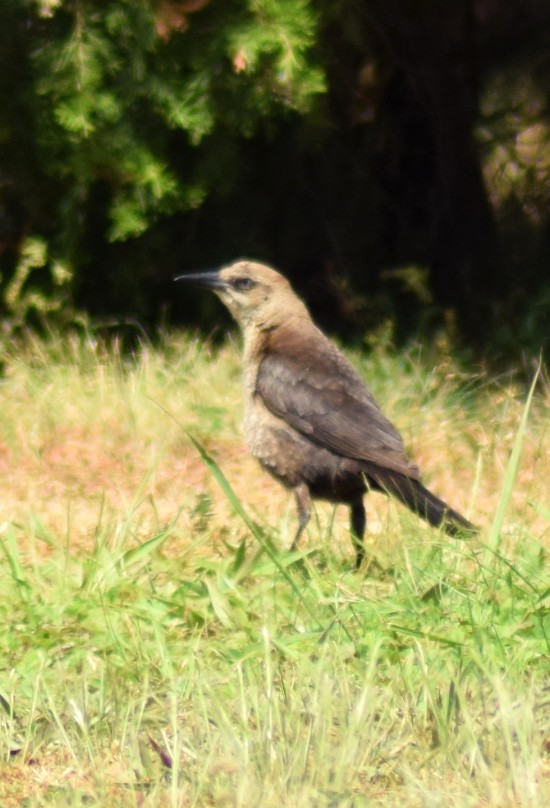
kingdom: Animalia
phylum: Chordata
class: Aves
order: Passeriformes
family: Icteridae
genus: Quiscalus
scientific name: Quiscalus quiscula
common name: Common grackle
